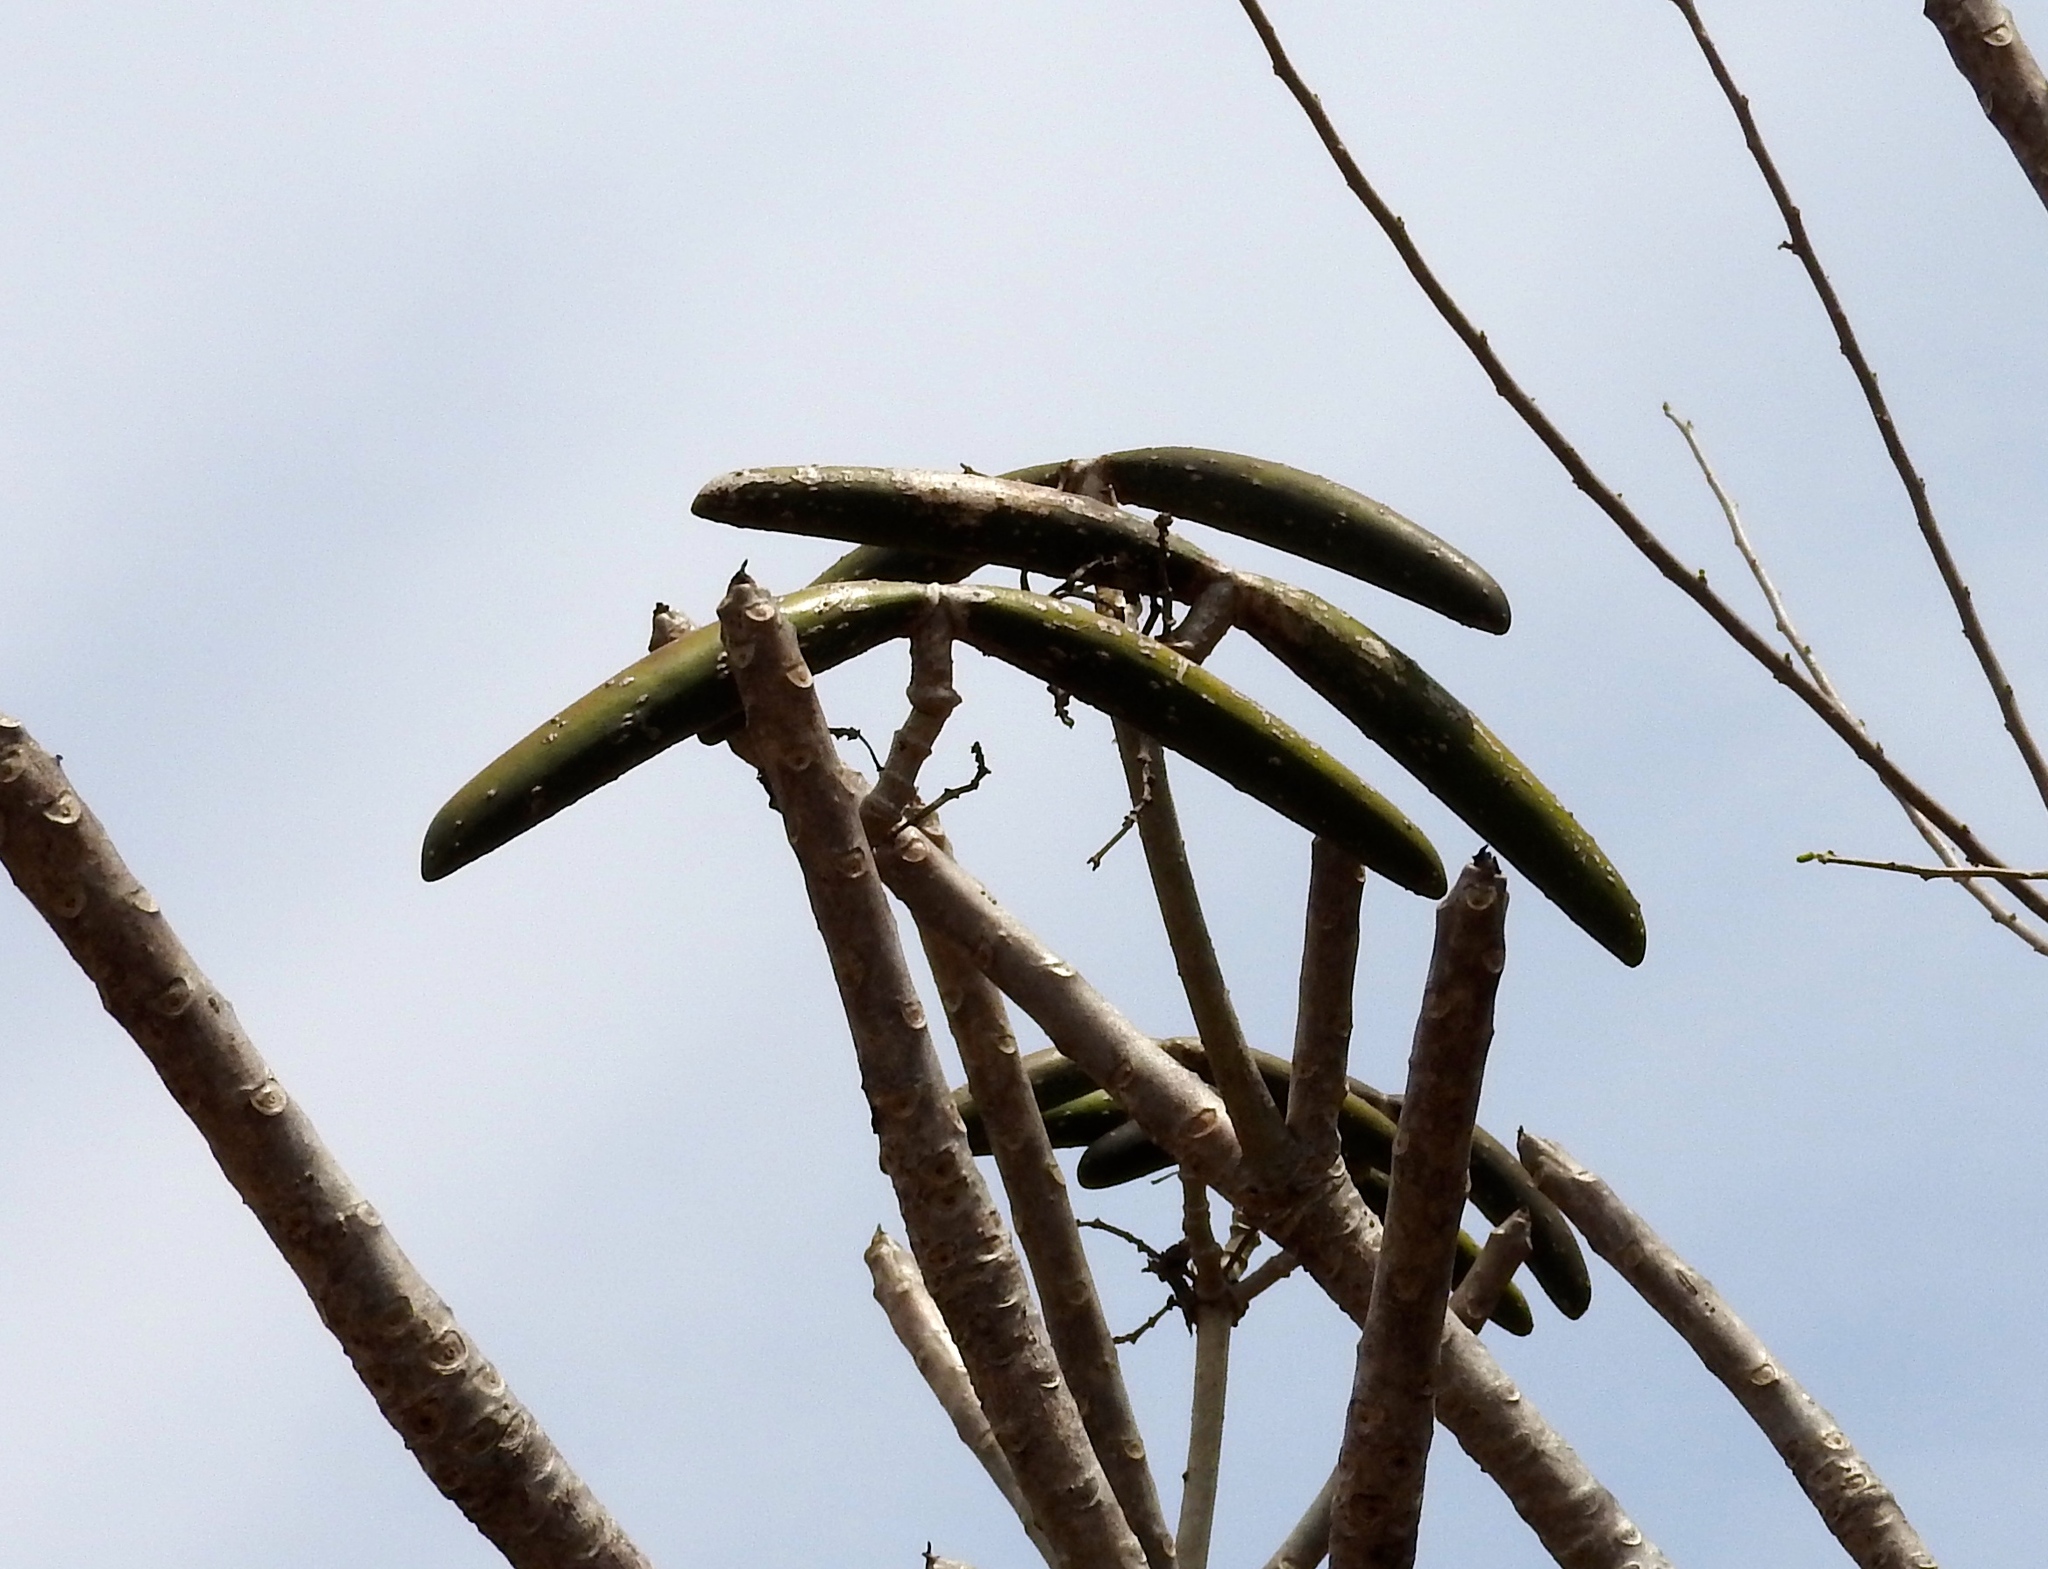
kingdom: Plantae
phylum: Tracheophyta
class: Magnoliopsida
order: Gentianales
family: Apocynaceae
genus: Plumeria
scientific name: Plumeria rubra
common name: Pagoda-tree
